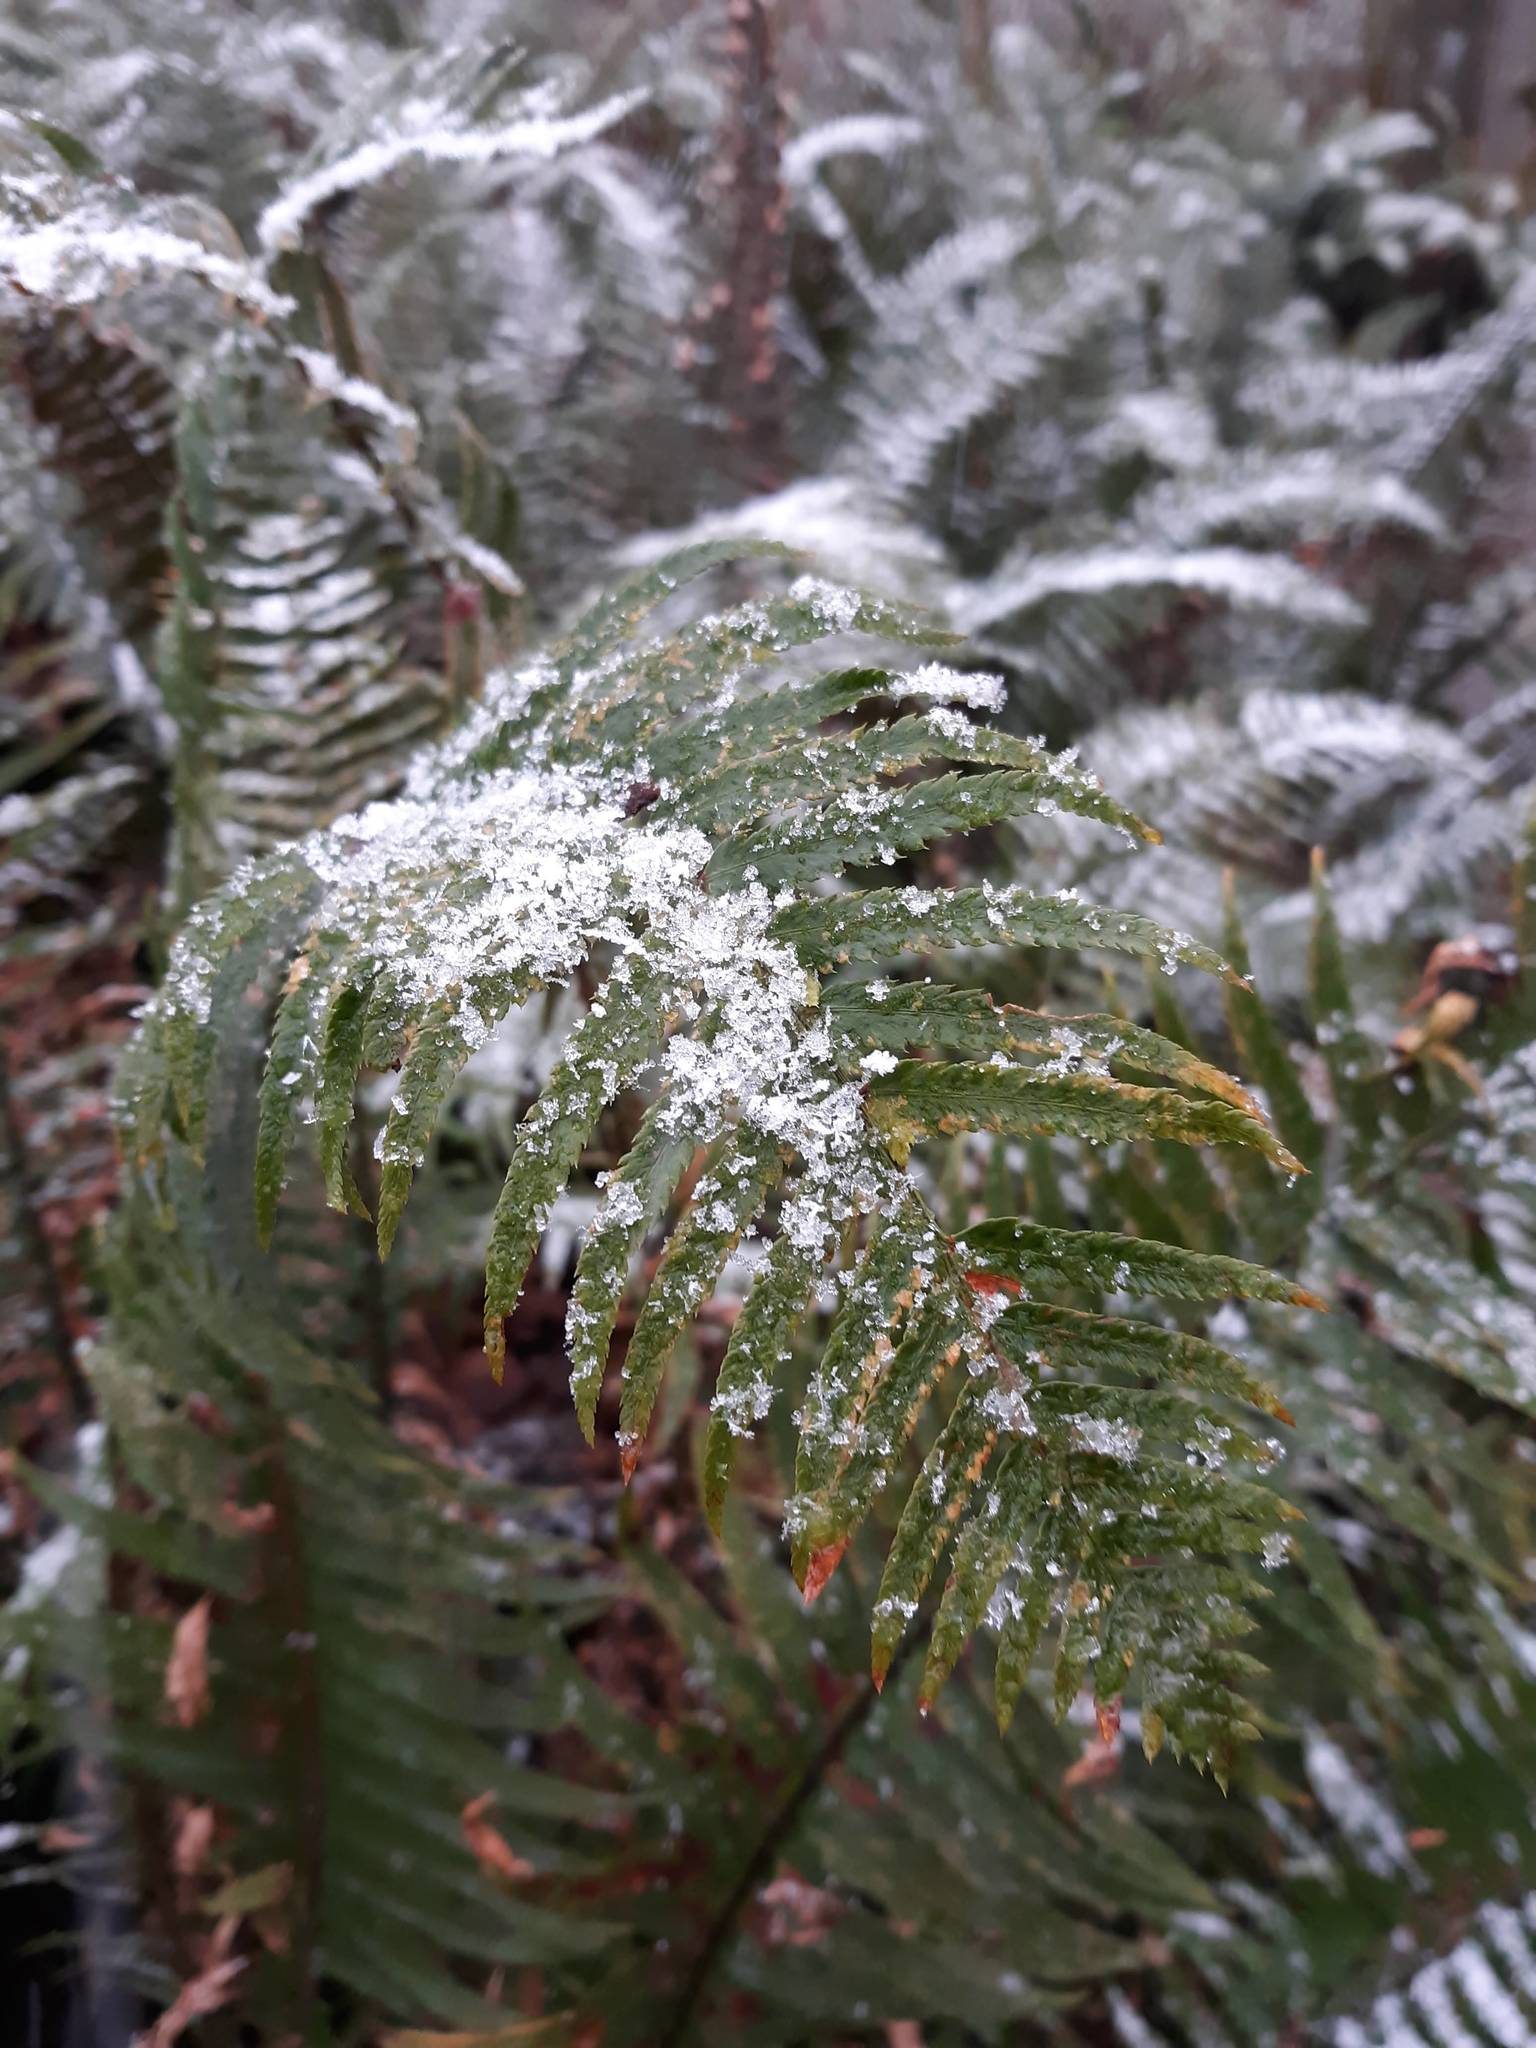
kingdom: Plantae
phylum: Tracheophyta
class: Polypodiopsida
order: Polypodiales
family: Dryopteridaceae
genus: Polystichum
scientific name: Polystichum munitum
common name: Western sword-fern
